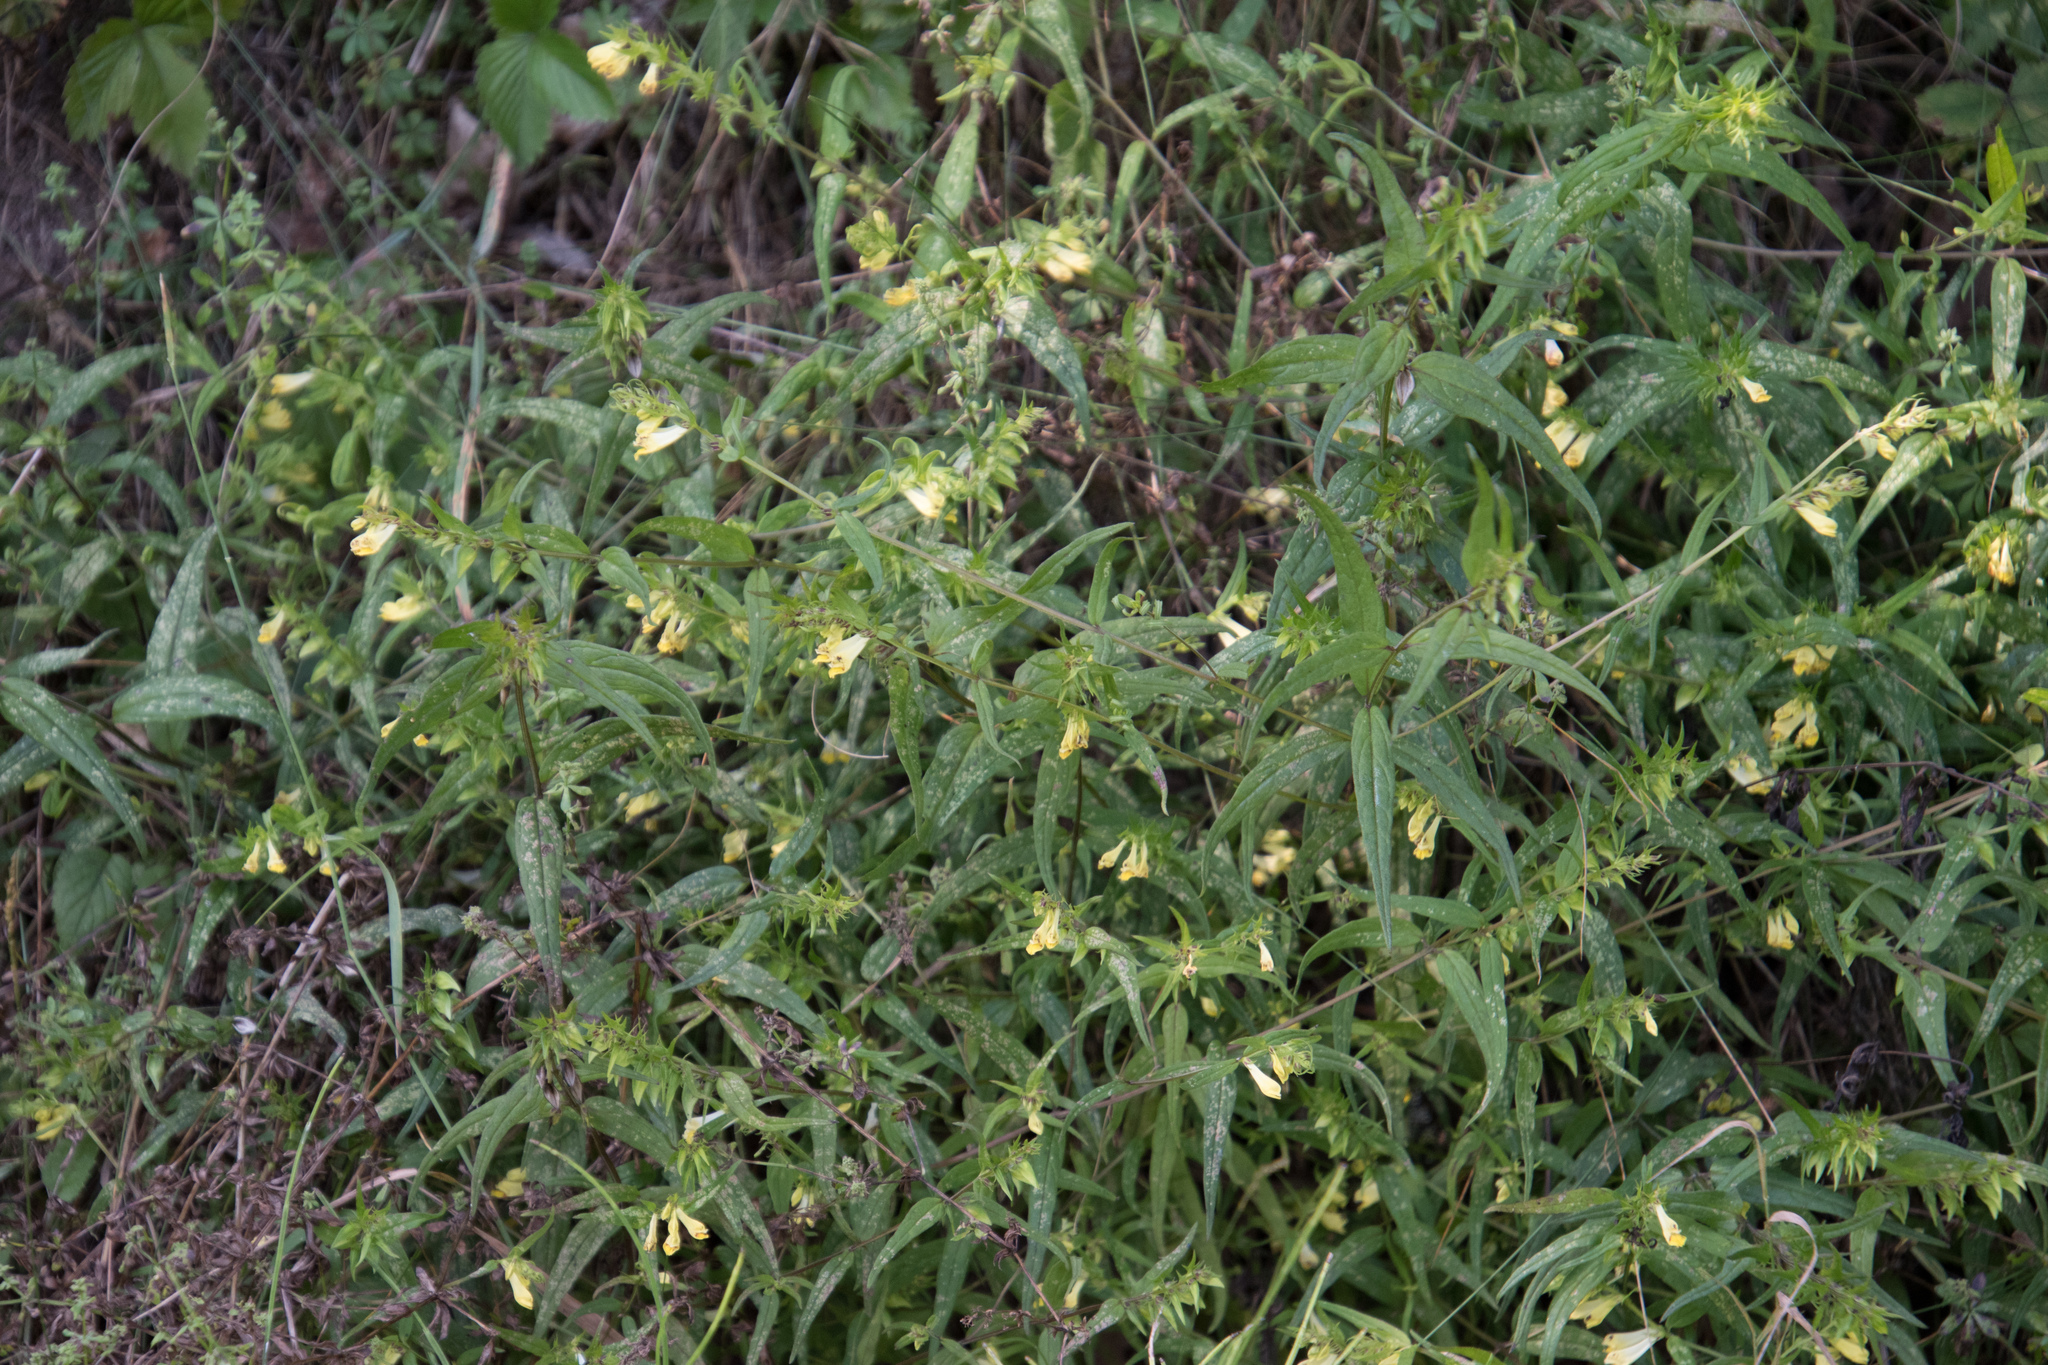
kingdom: Plantae
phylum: Tracheophyta
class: Magnoliopsida
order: Lamiales
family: Orobanchaceae
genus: Melampyrum
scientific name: Melampyrum pratense
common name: Common cow-wheat
